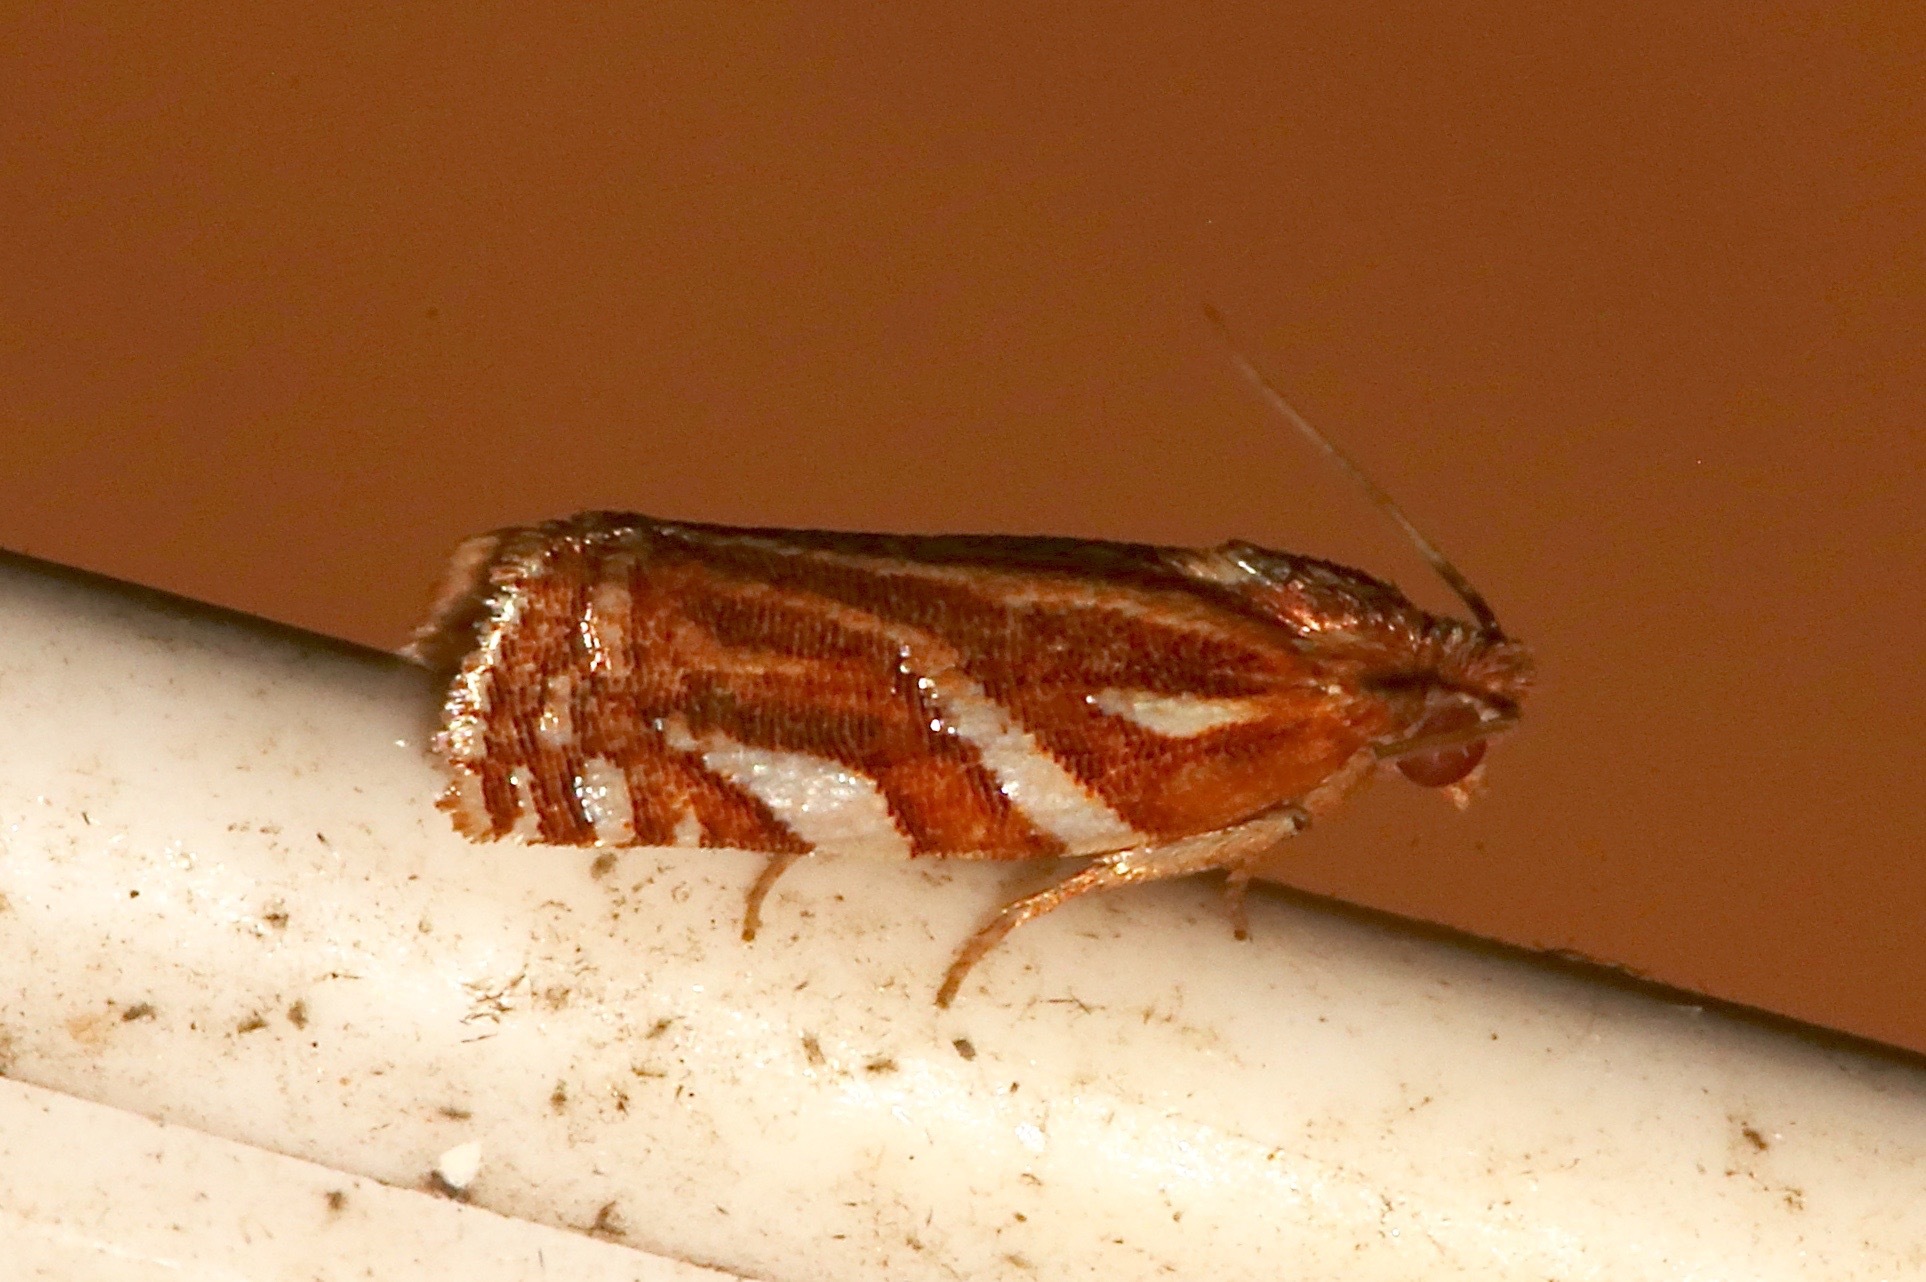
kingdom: Animalia
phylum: Arthropoda
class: Insecta
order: Lepidoptera
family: Tortricidae
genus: Choristoneura
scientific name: Choristoneura argentifasciata
